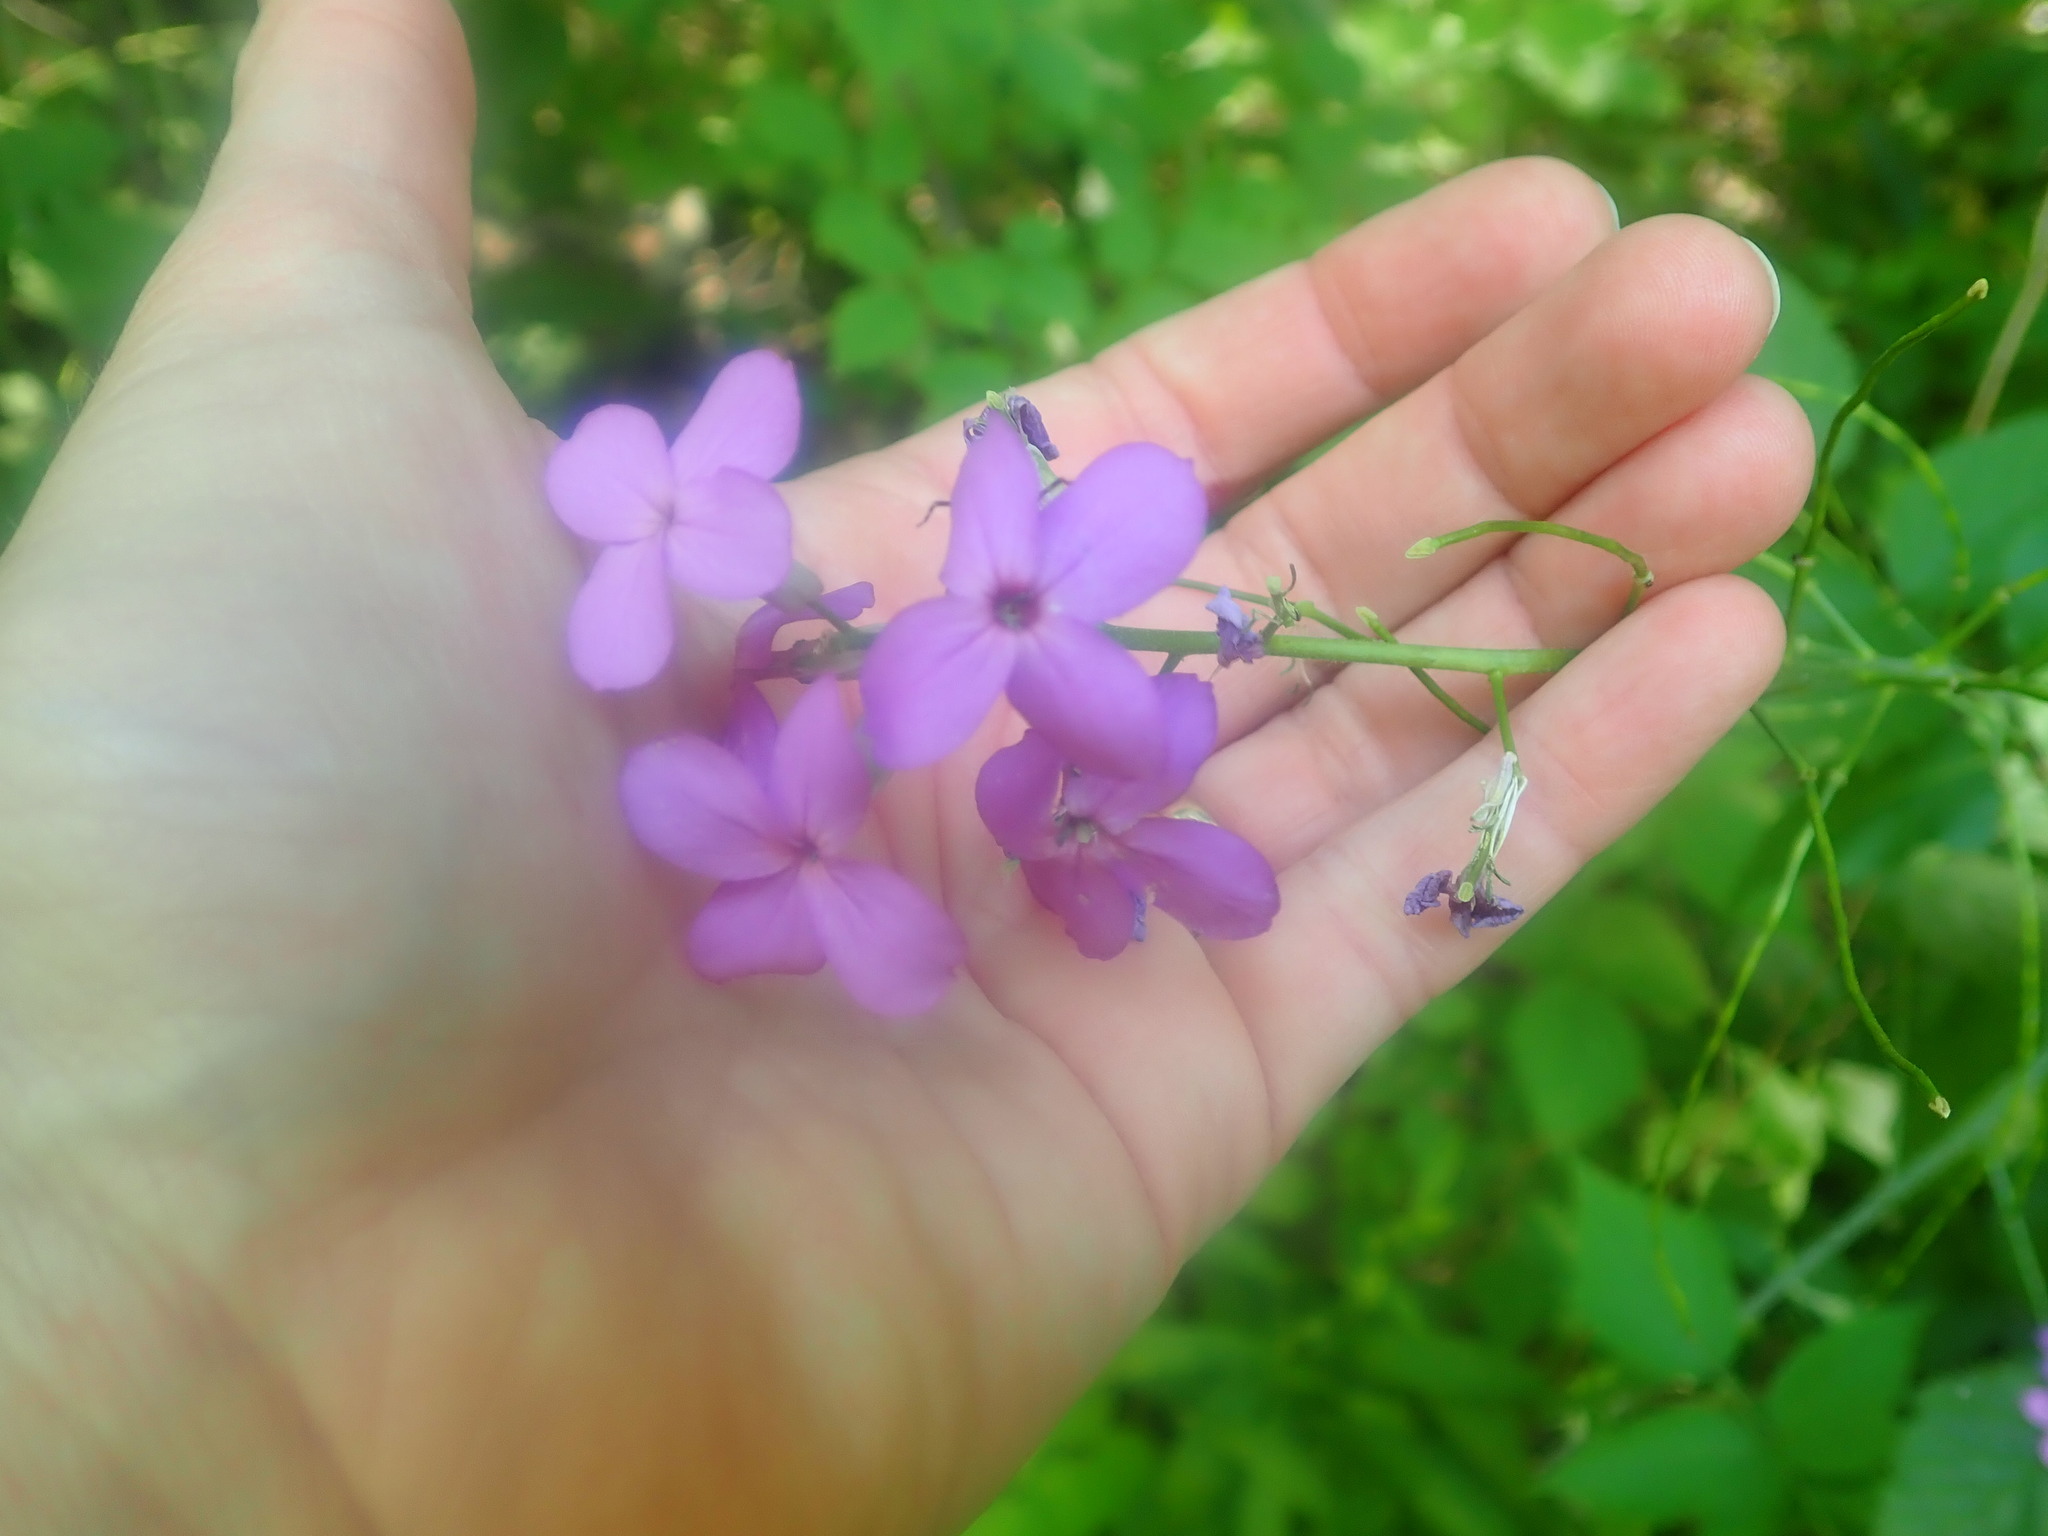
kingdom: Plantae
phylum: Tracheophyta
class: Magnoliopsida
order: Brassicales
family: Brassicaceae
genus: Hesperis
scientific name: Hesperis matronalis
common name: Dame's-violet
